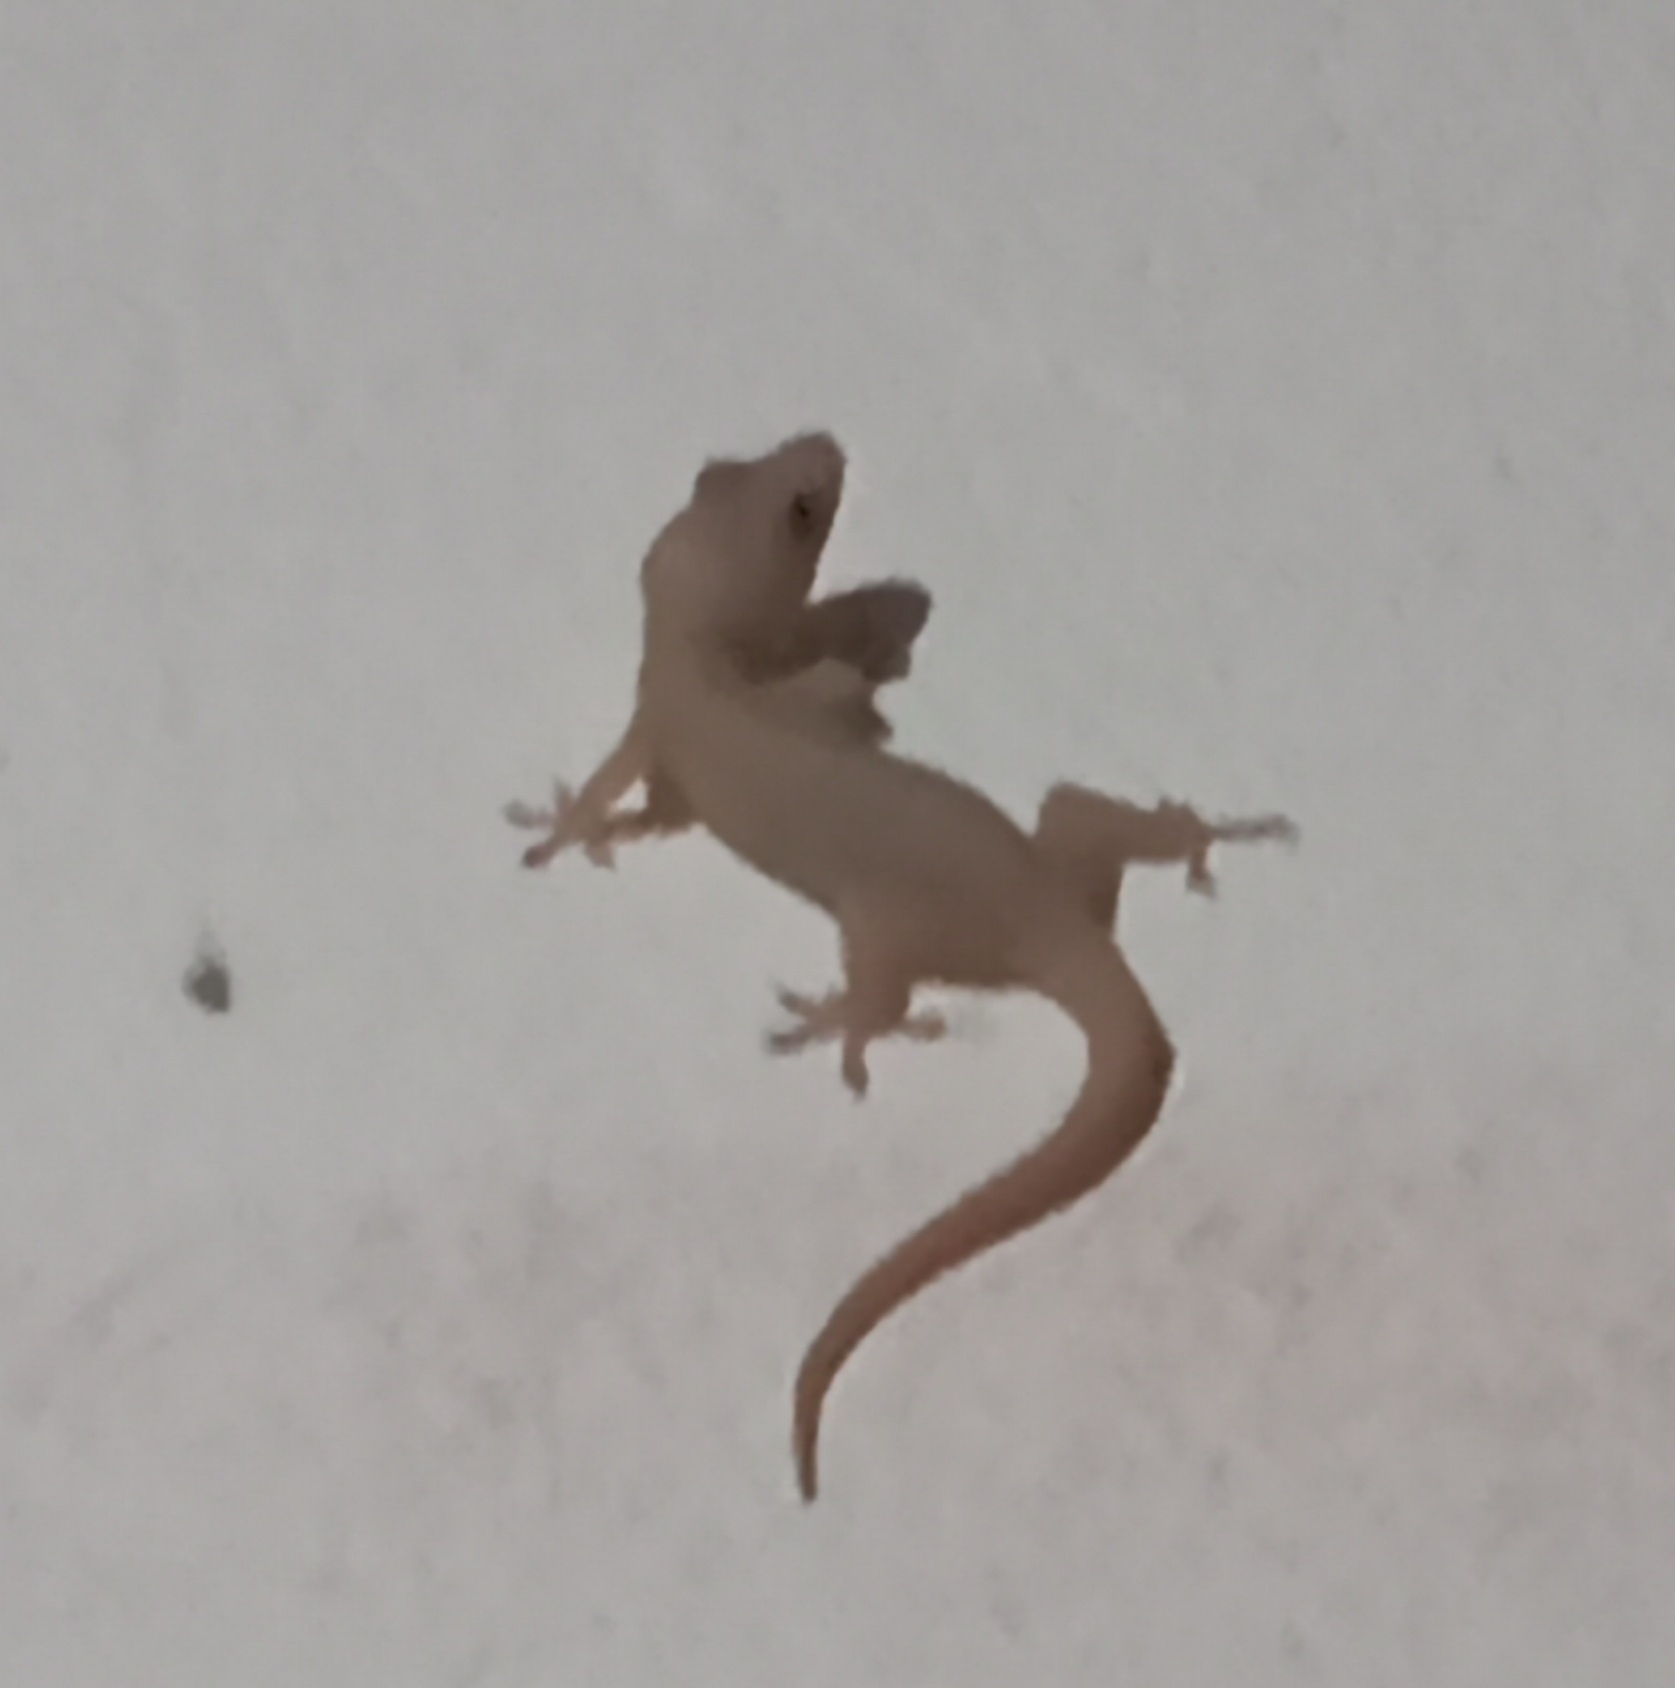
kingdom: Animalia
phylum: Chordata
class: Squamata
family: Gekkonidae
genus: Hemidactylus
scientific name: Hemidactylus frenatus
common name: Common house gecko
